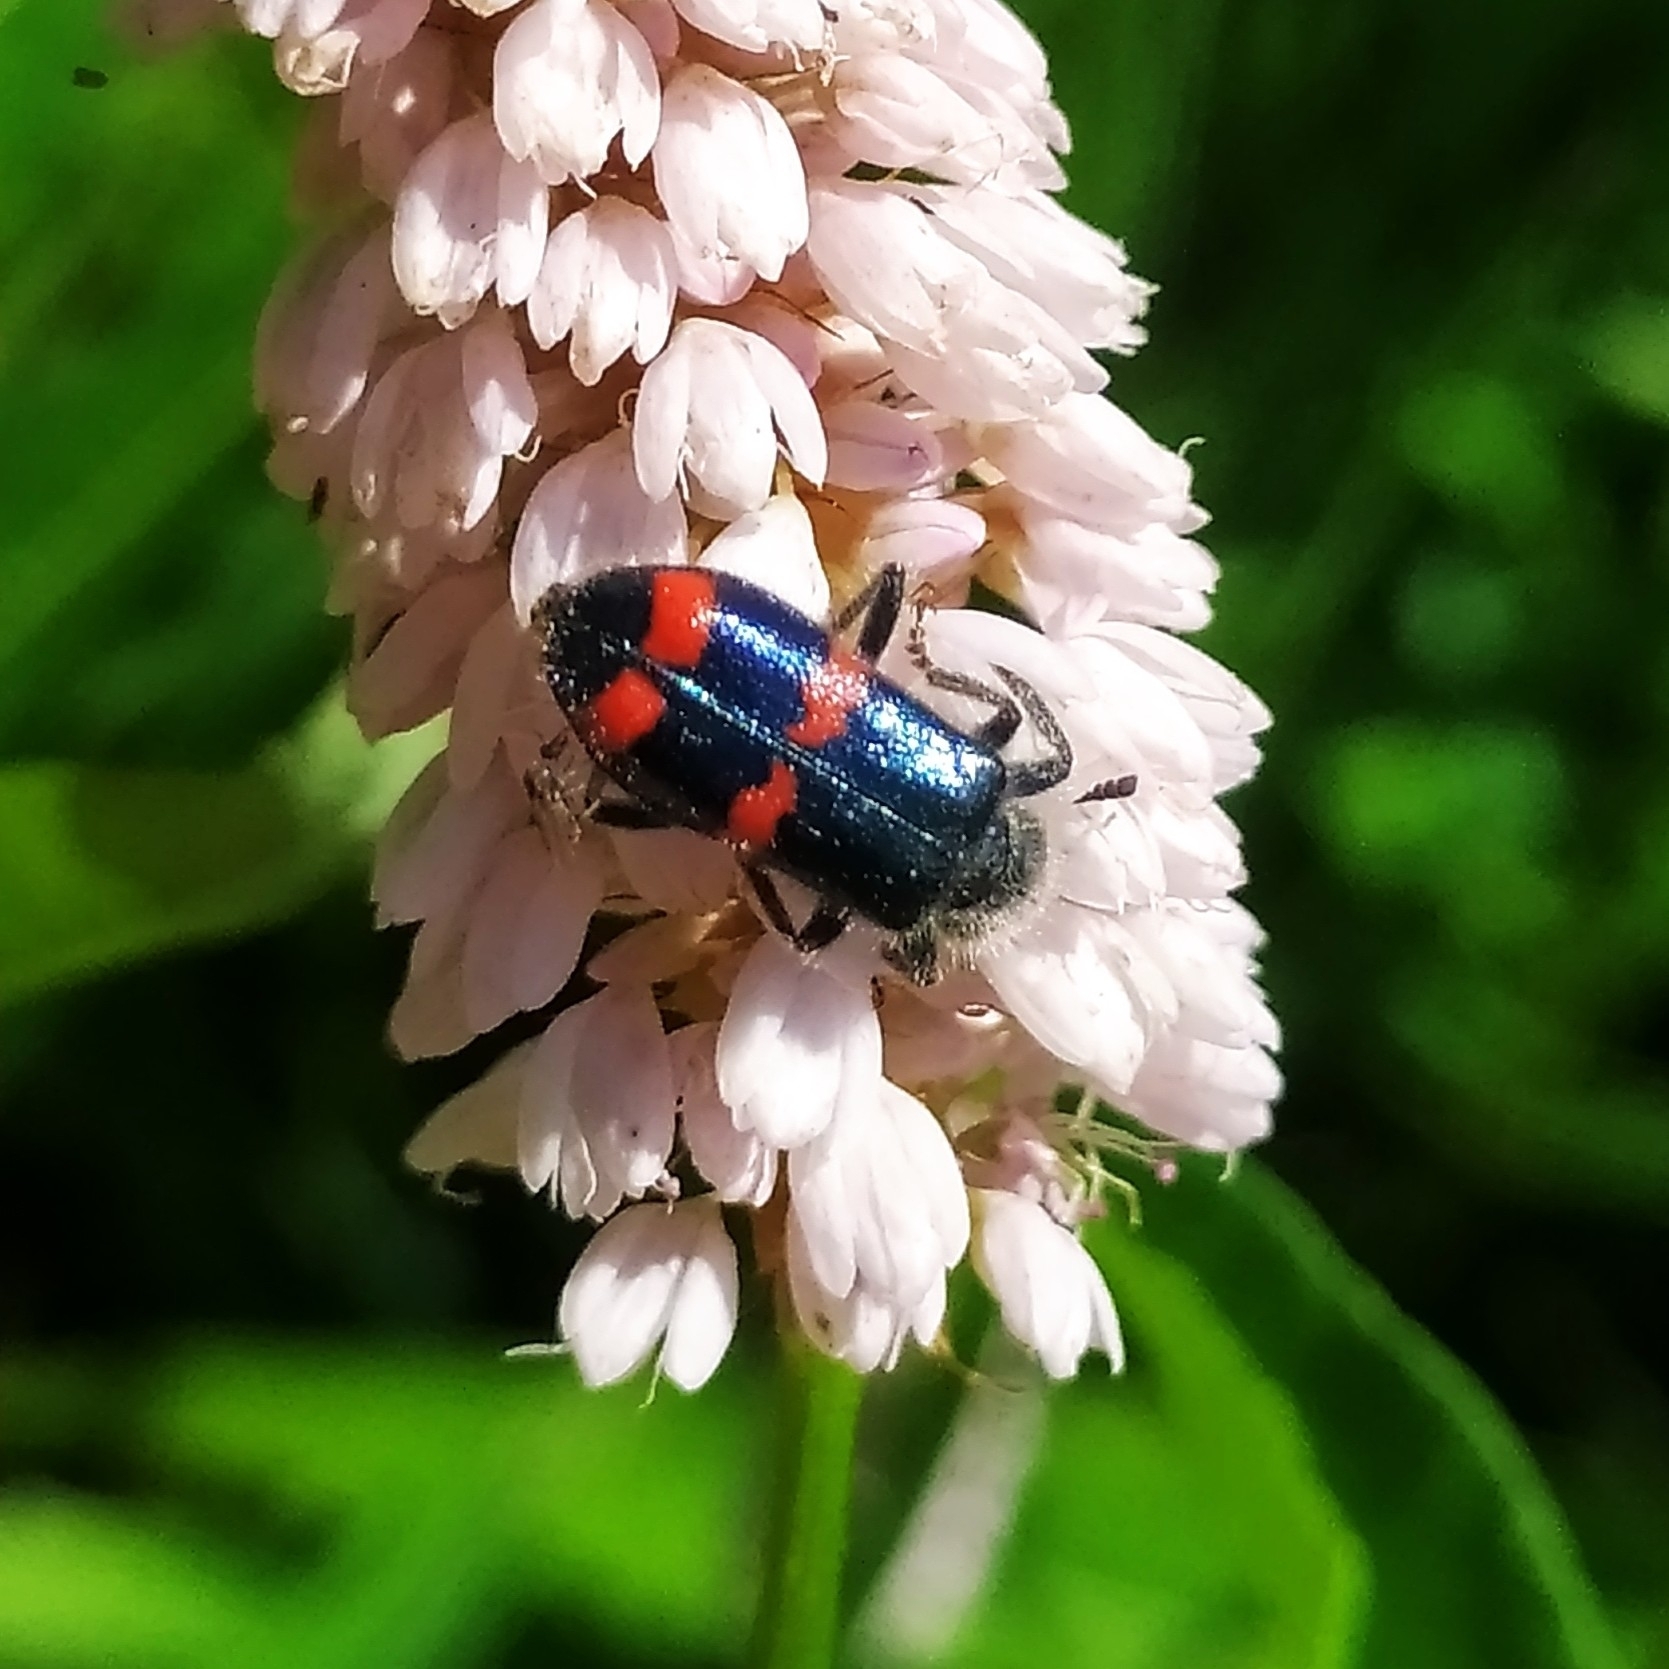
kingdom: Animalia
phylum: Arthropoda
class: Insecta
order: Coleoptera
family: Cleridae
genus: Trichodes
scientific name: Trichodes
